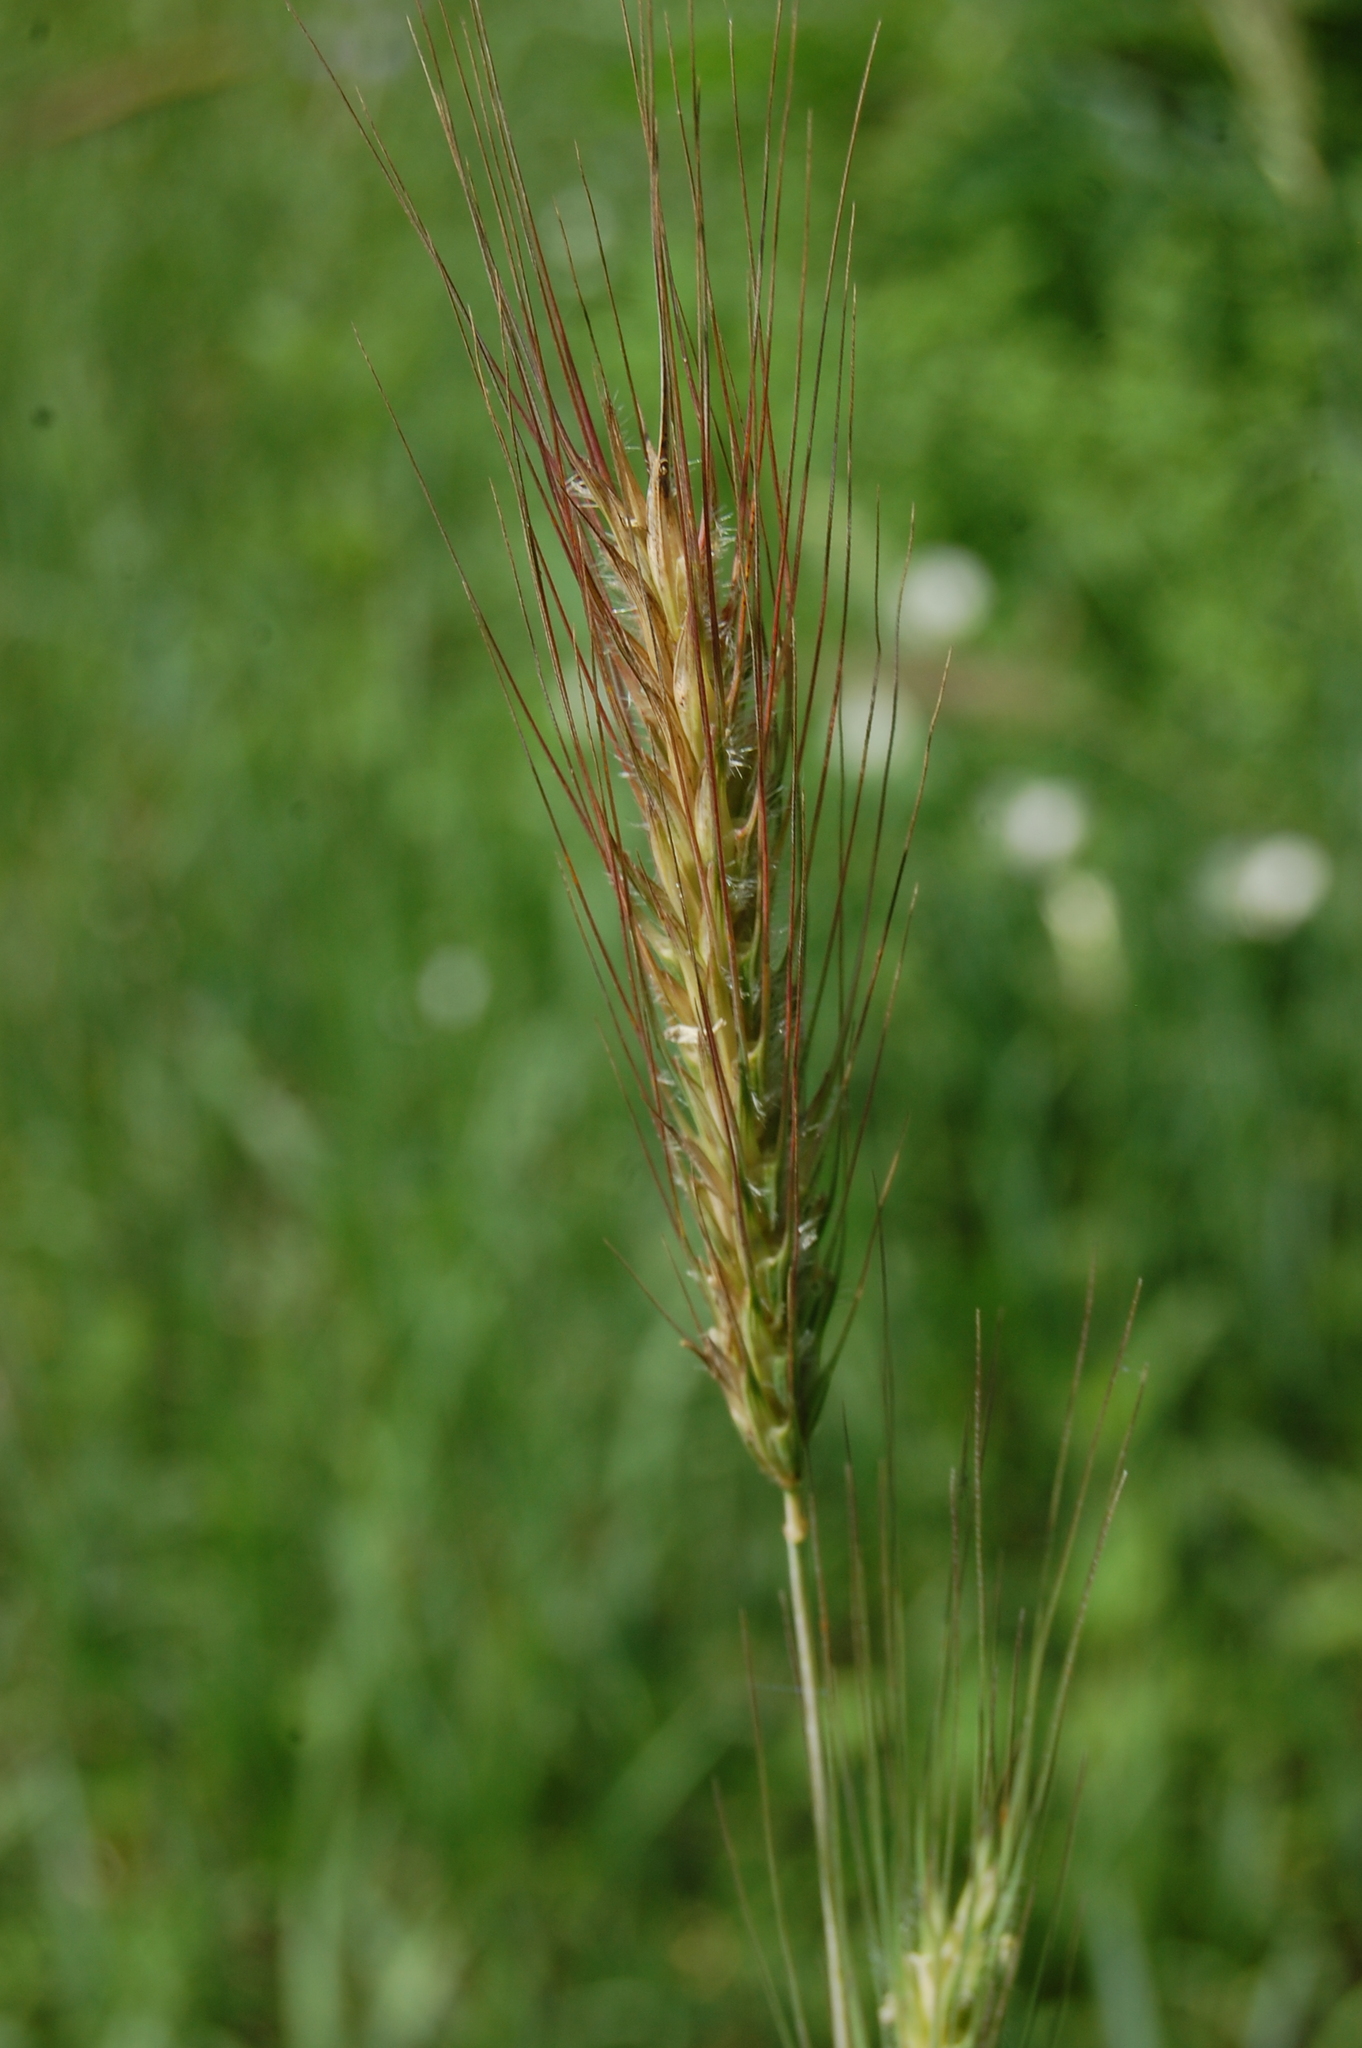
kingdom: Plantae
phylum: Tracheophyta
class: Liliopsida
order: Poales
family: Poaceae
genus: Dasypyrum
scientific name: Dasypyrum villosum
